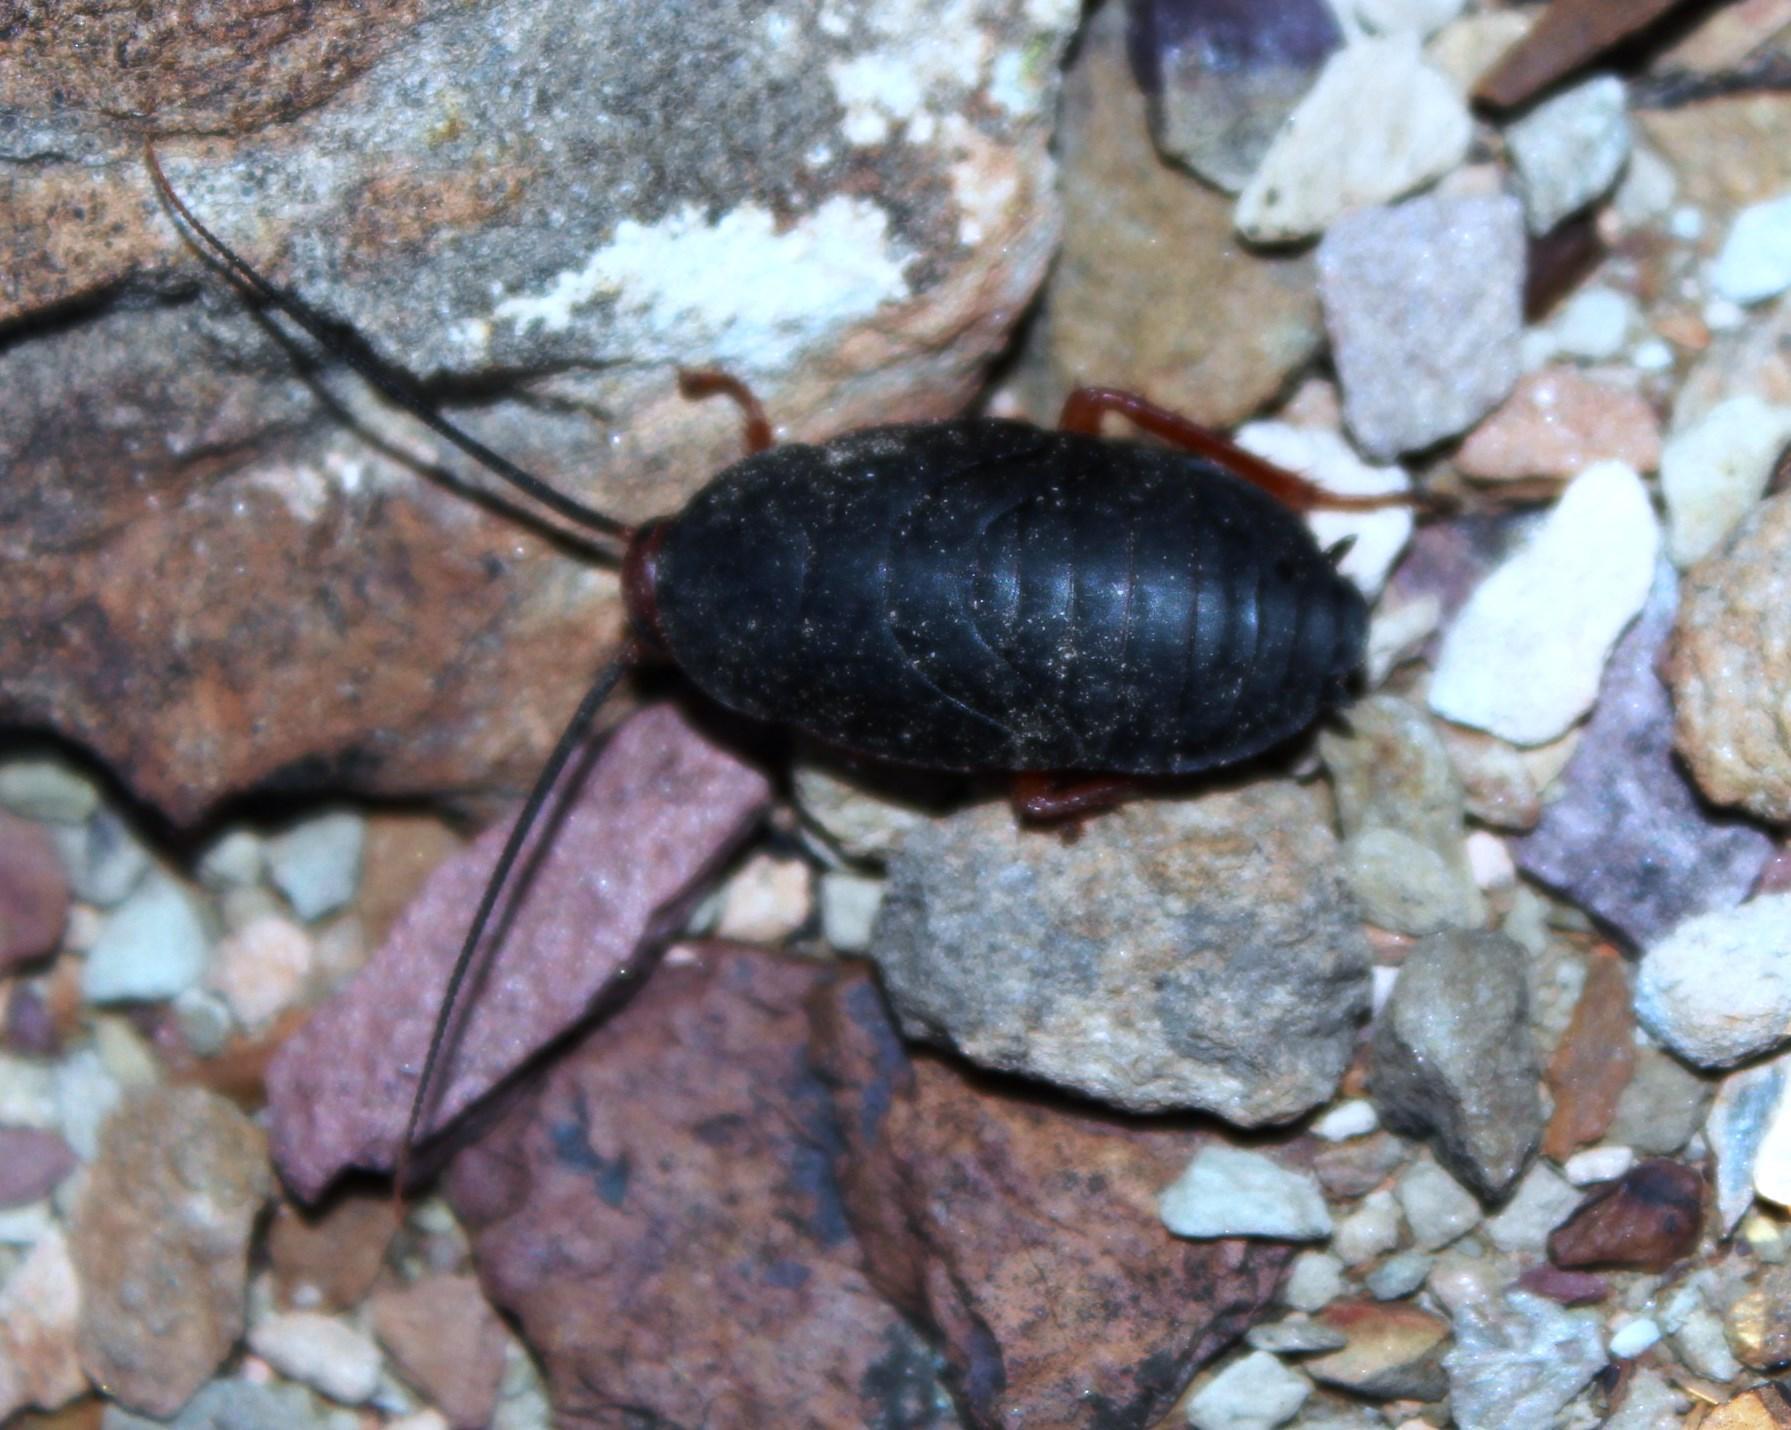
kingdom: Animalia
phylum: Arthropoda
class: Insecta
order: Blattodea
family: Blattidae
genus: Deropeltis
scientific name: Deropeltis erythrocephala
